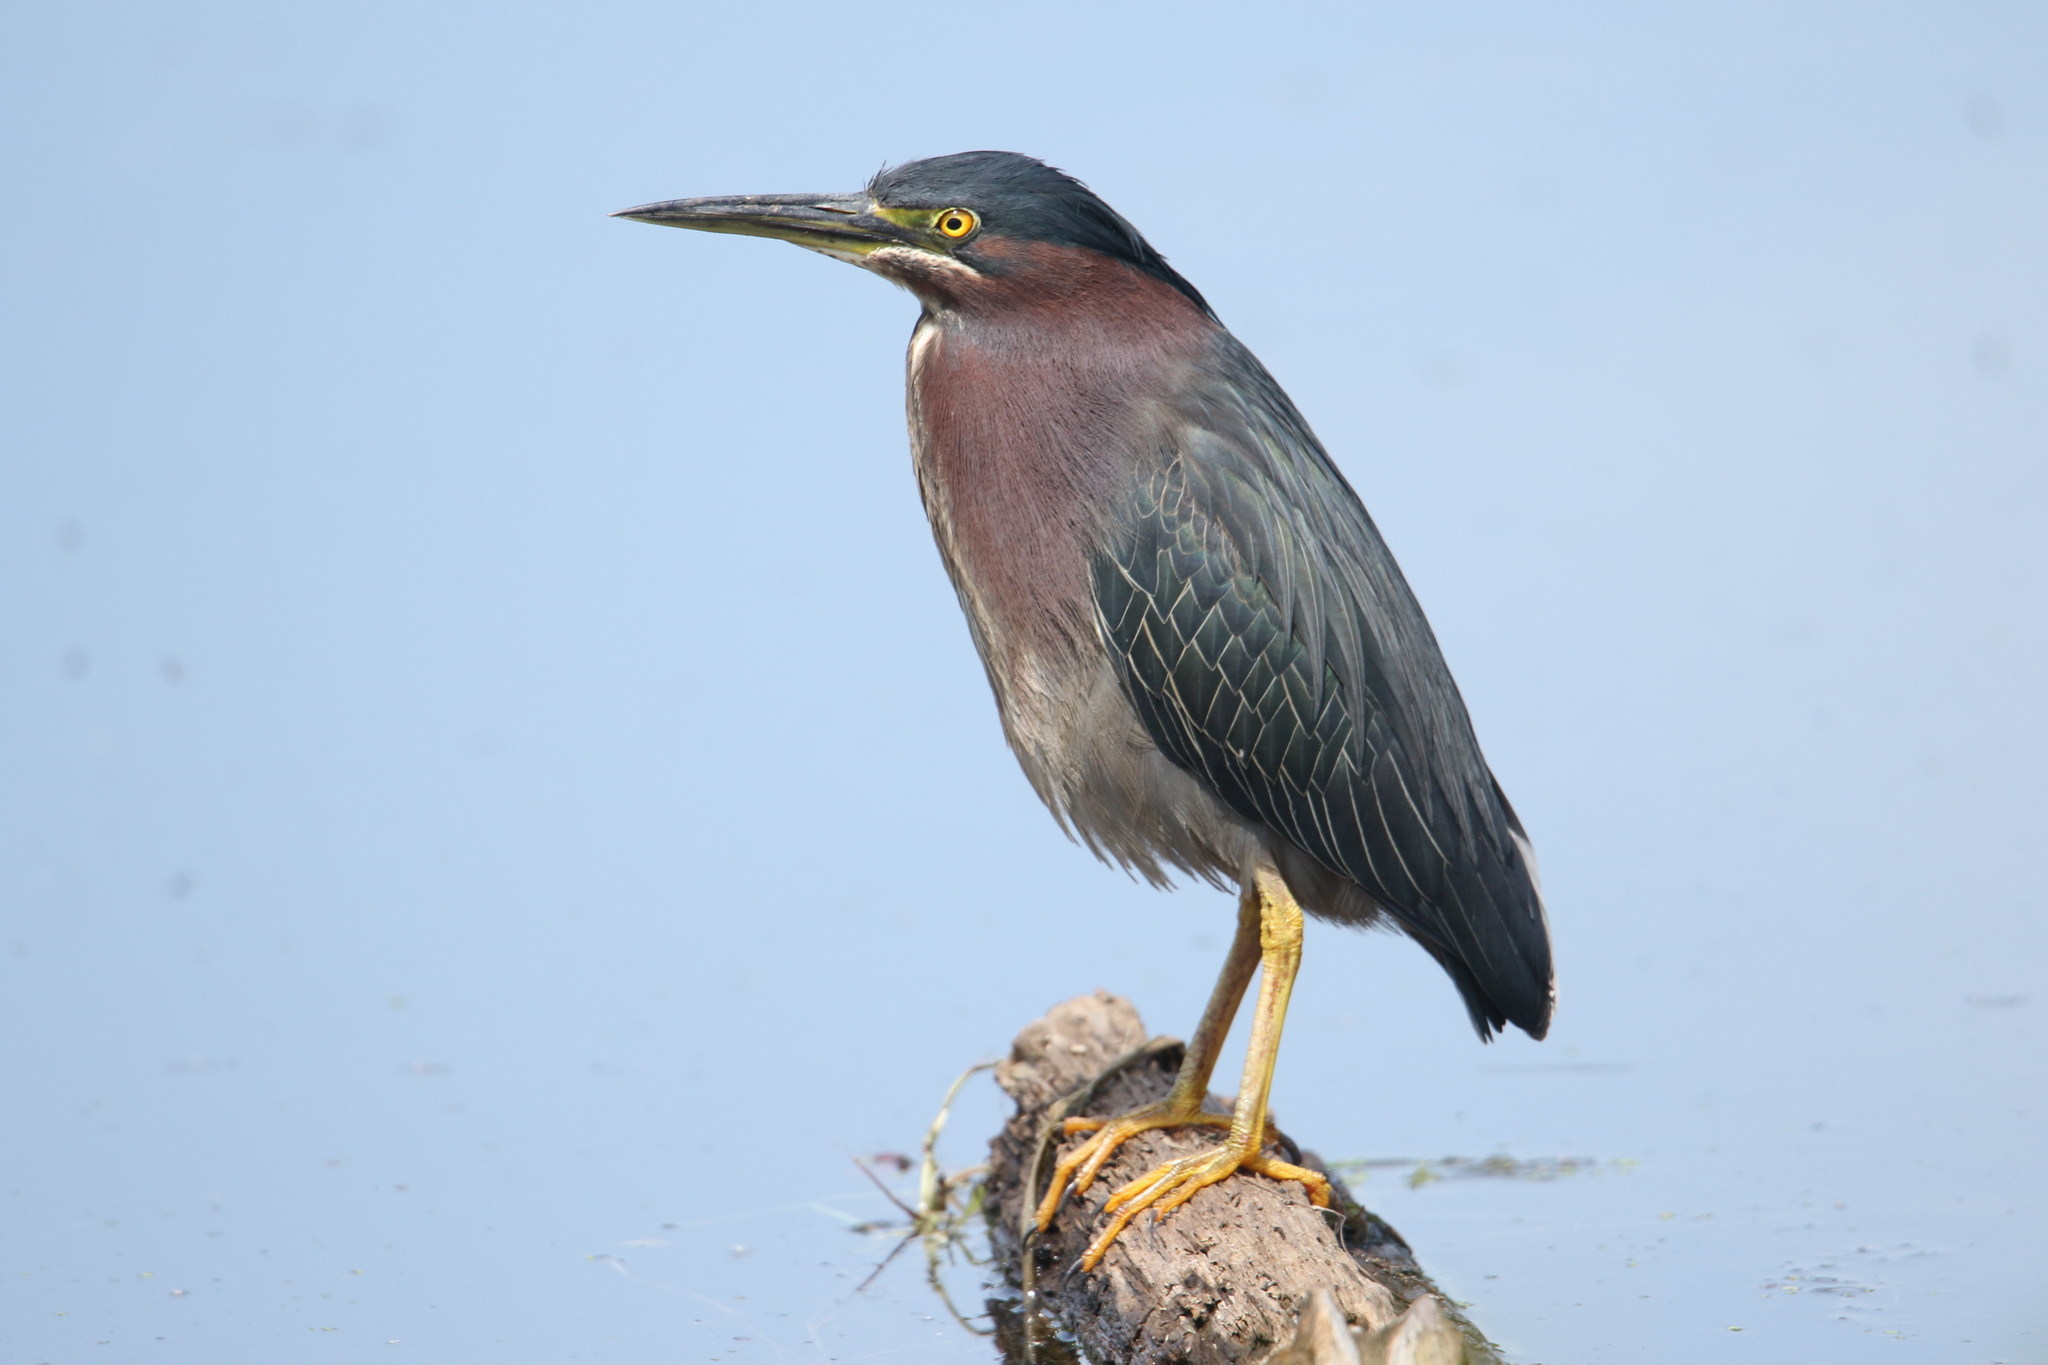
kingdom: Animalia
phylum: Chordata
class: Aves
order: Pelecaniformes
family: Ardeidae
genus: Butorides
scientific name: Butorides virescens
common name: Green heron
